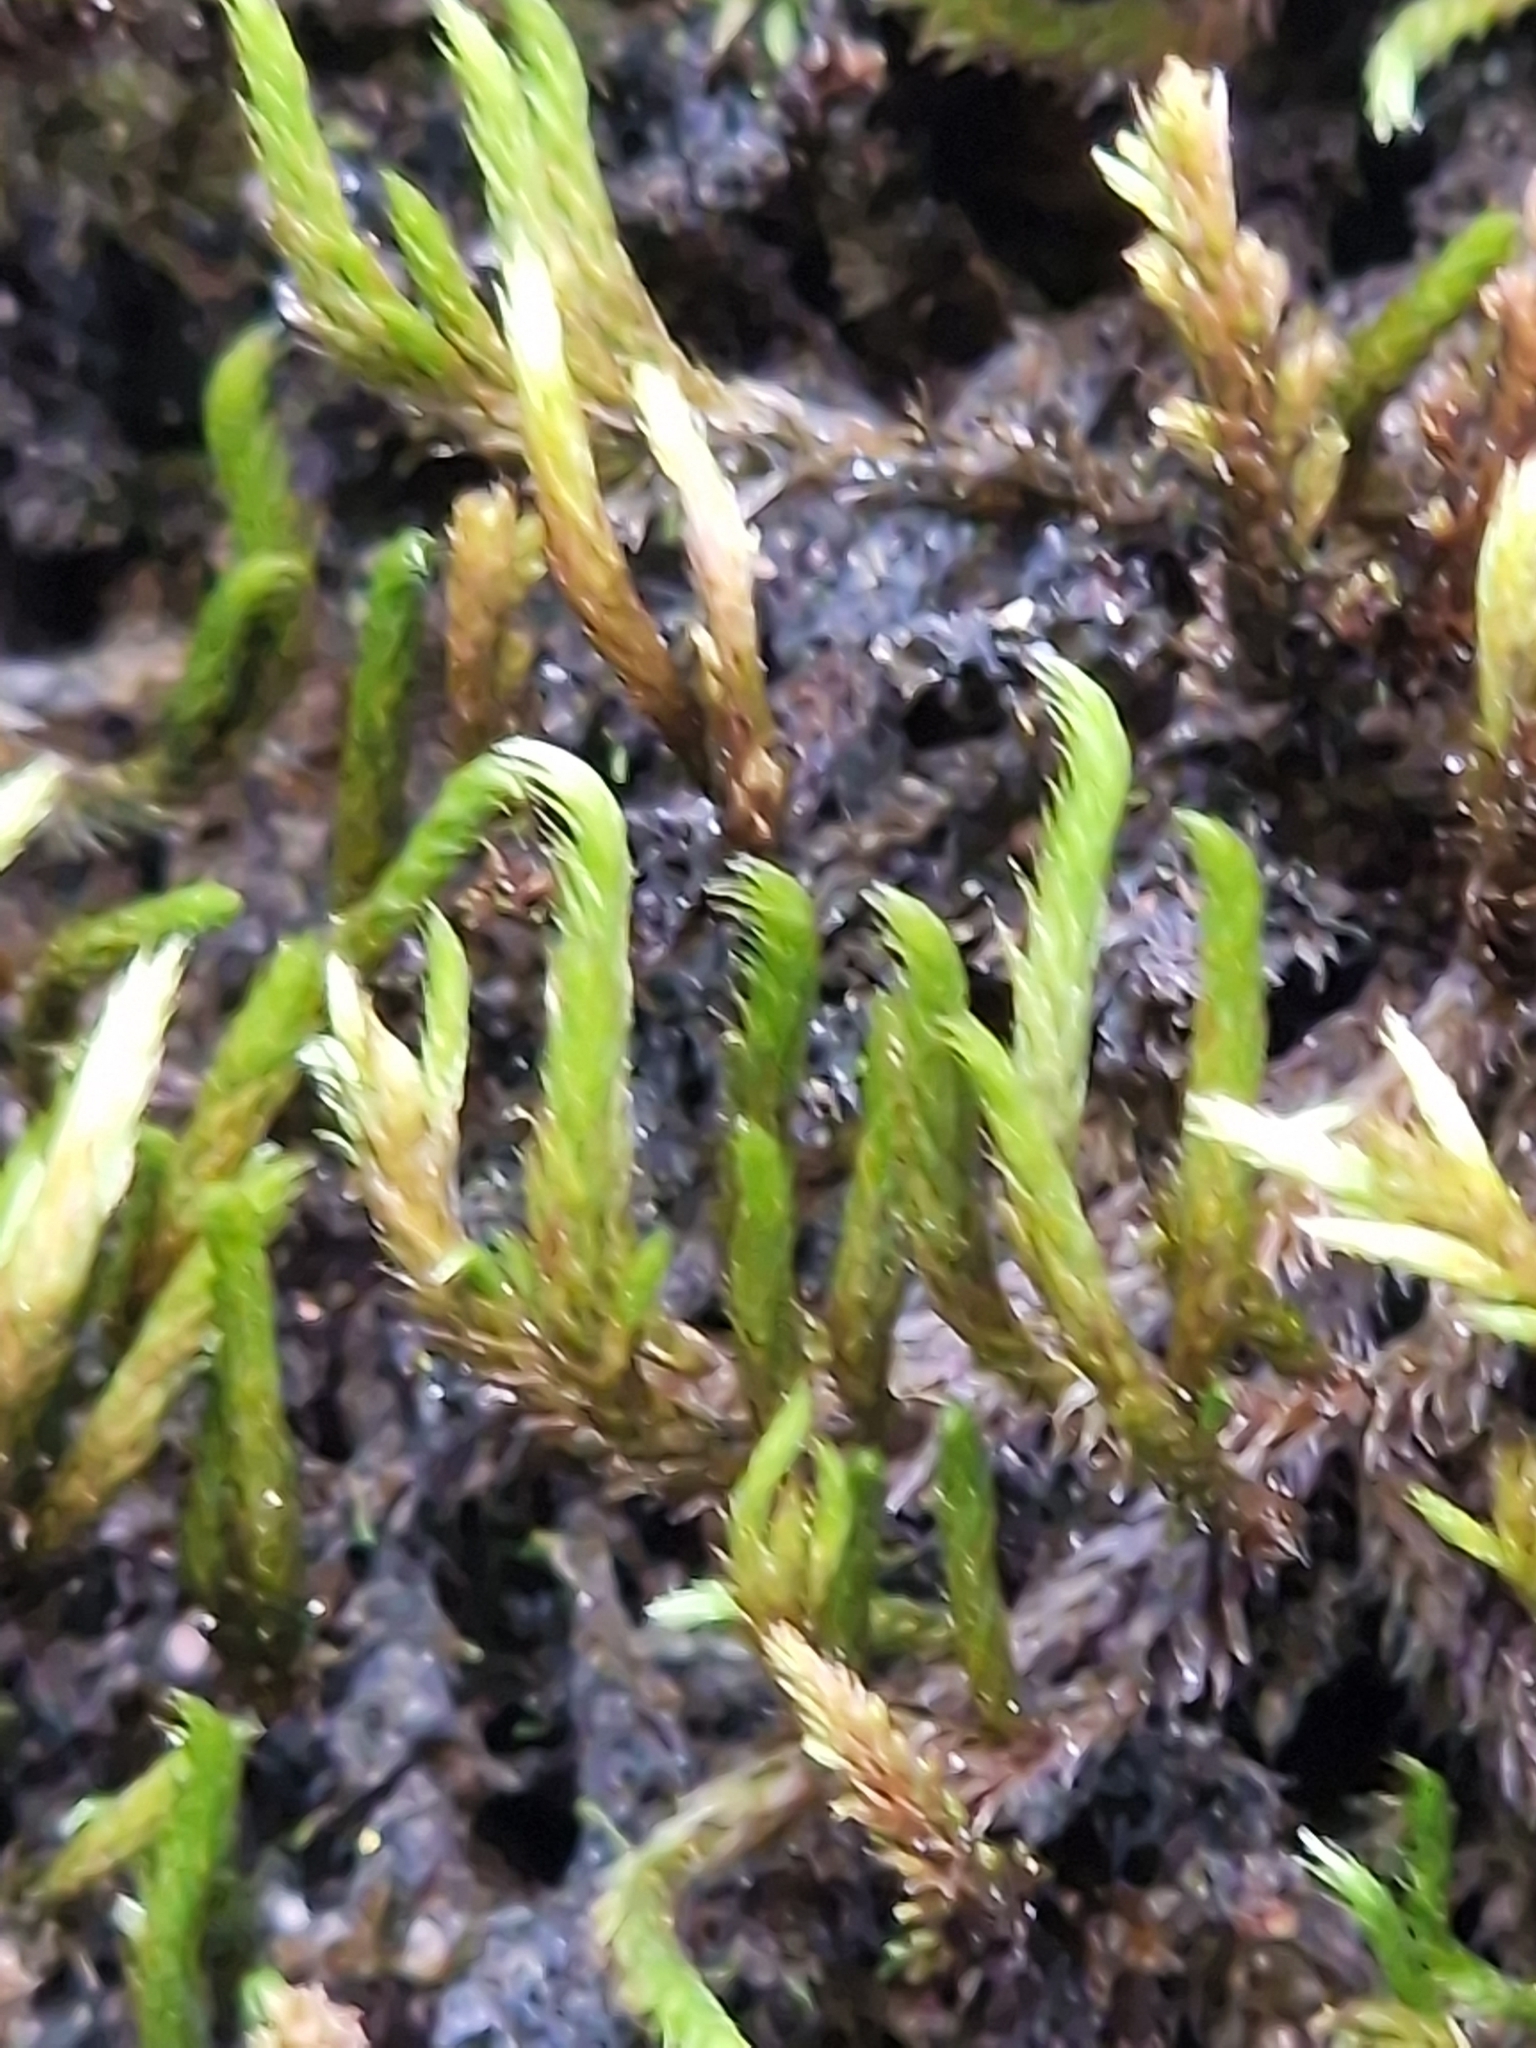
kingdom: Plantae
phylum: Bryophyta
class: Bryopsida
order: Hypnales
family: Leucodontaceae
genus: Leucodon
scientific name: Leucodon sciuroides
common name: Squirrel-tail moss
